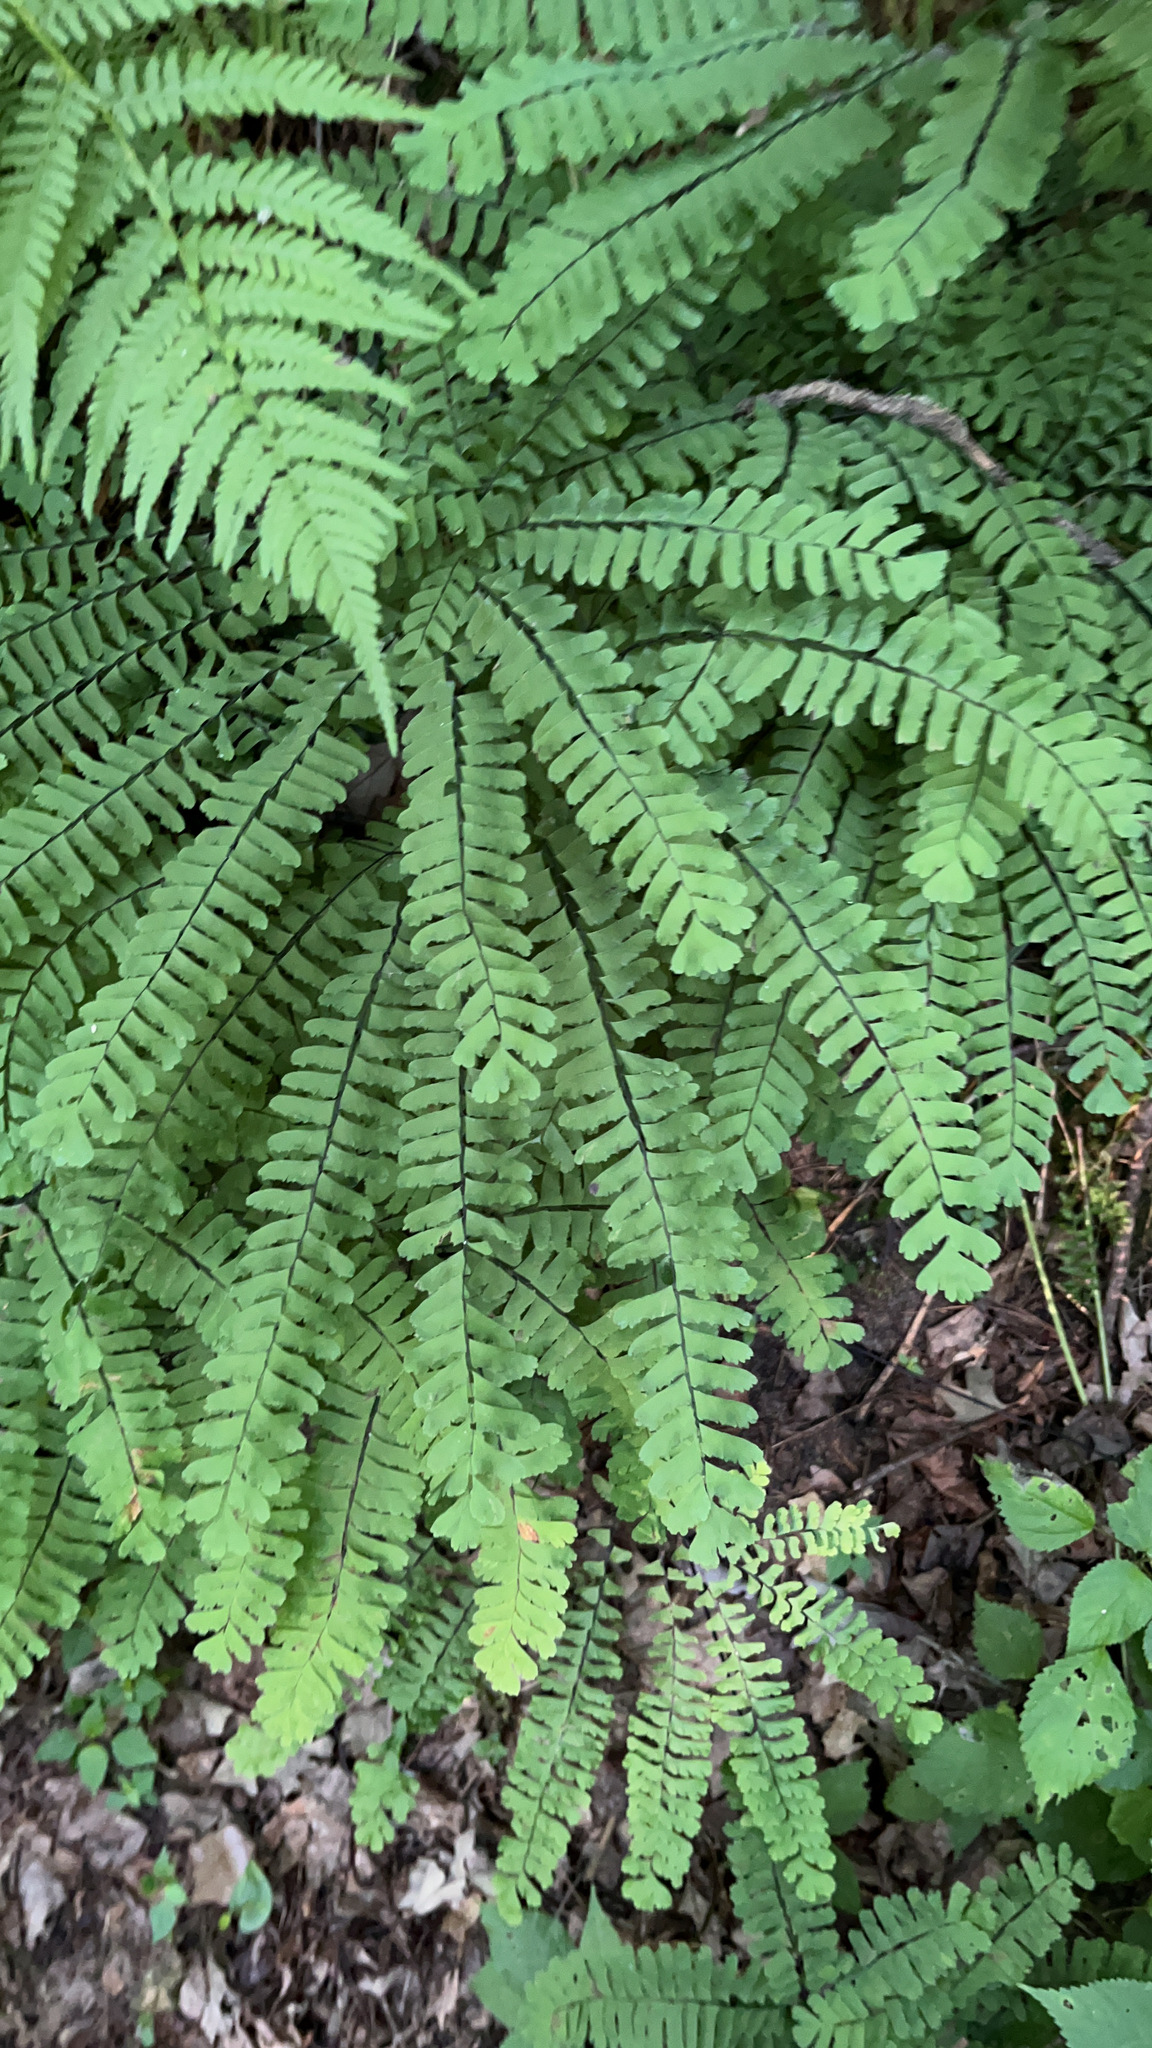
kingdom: Plantae
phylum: Tracheophyta
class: Polypodiopsida
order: Polypodiales
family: Pteridaceae
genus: Adiantum
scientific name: Adiantum pedatum
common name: Five-finger fern
